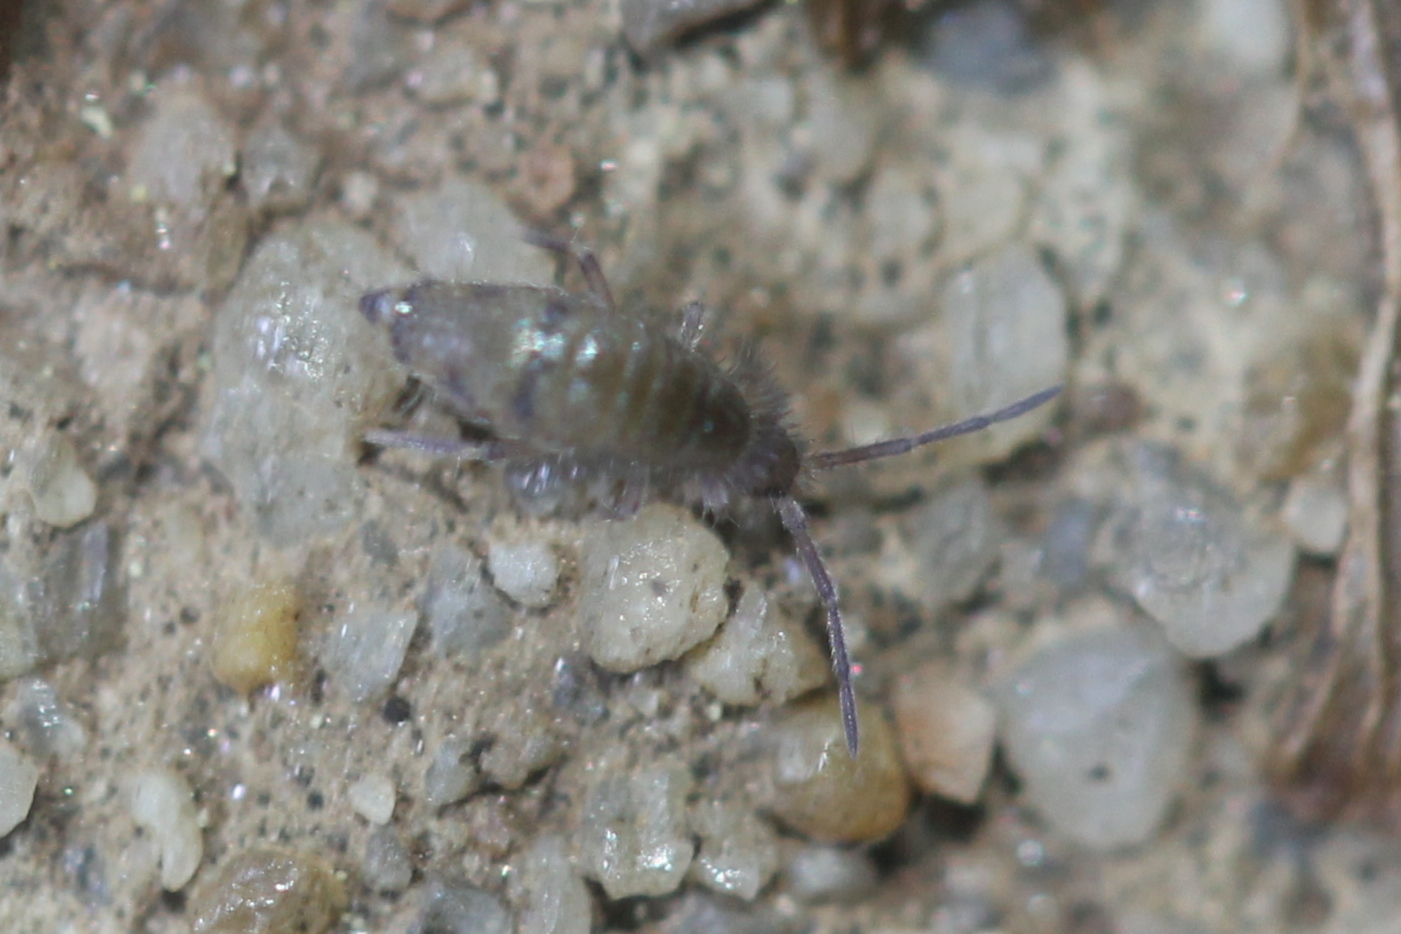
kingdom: Animalia
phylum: Arthropoda
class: Collembola
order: Entomobryomorpha
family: Entomobryidae
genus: Willowsia
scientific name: Willowsia nigromaculata
